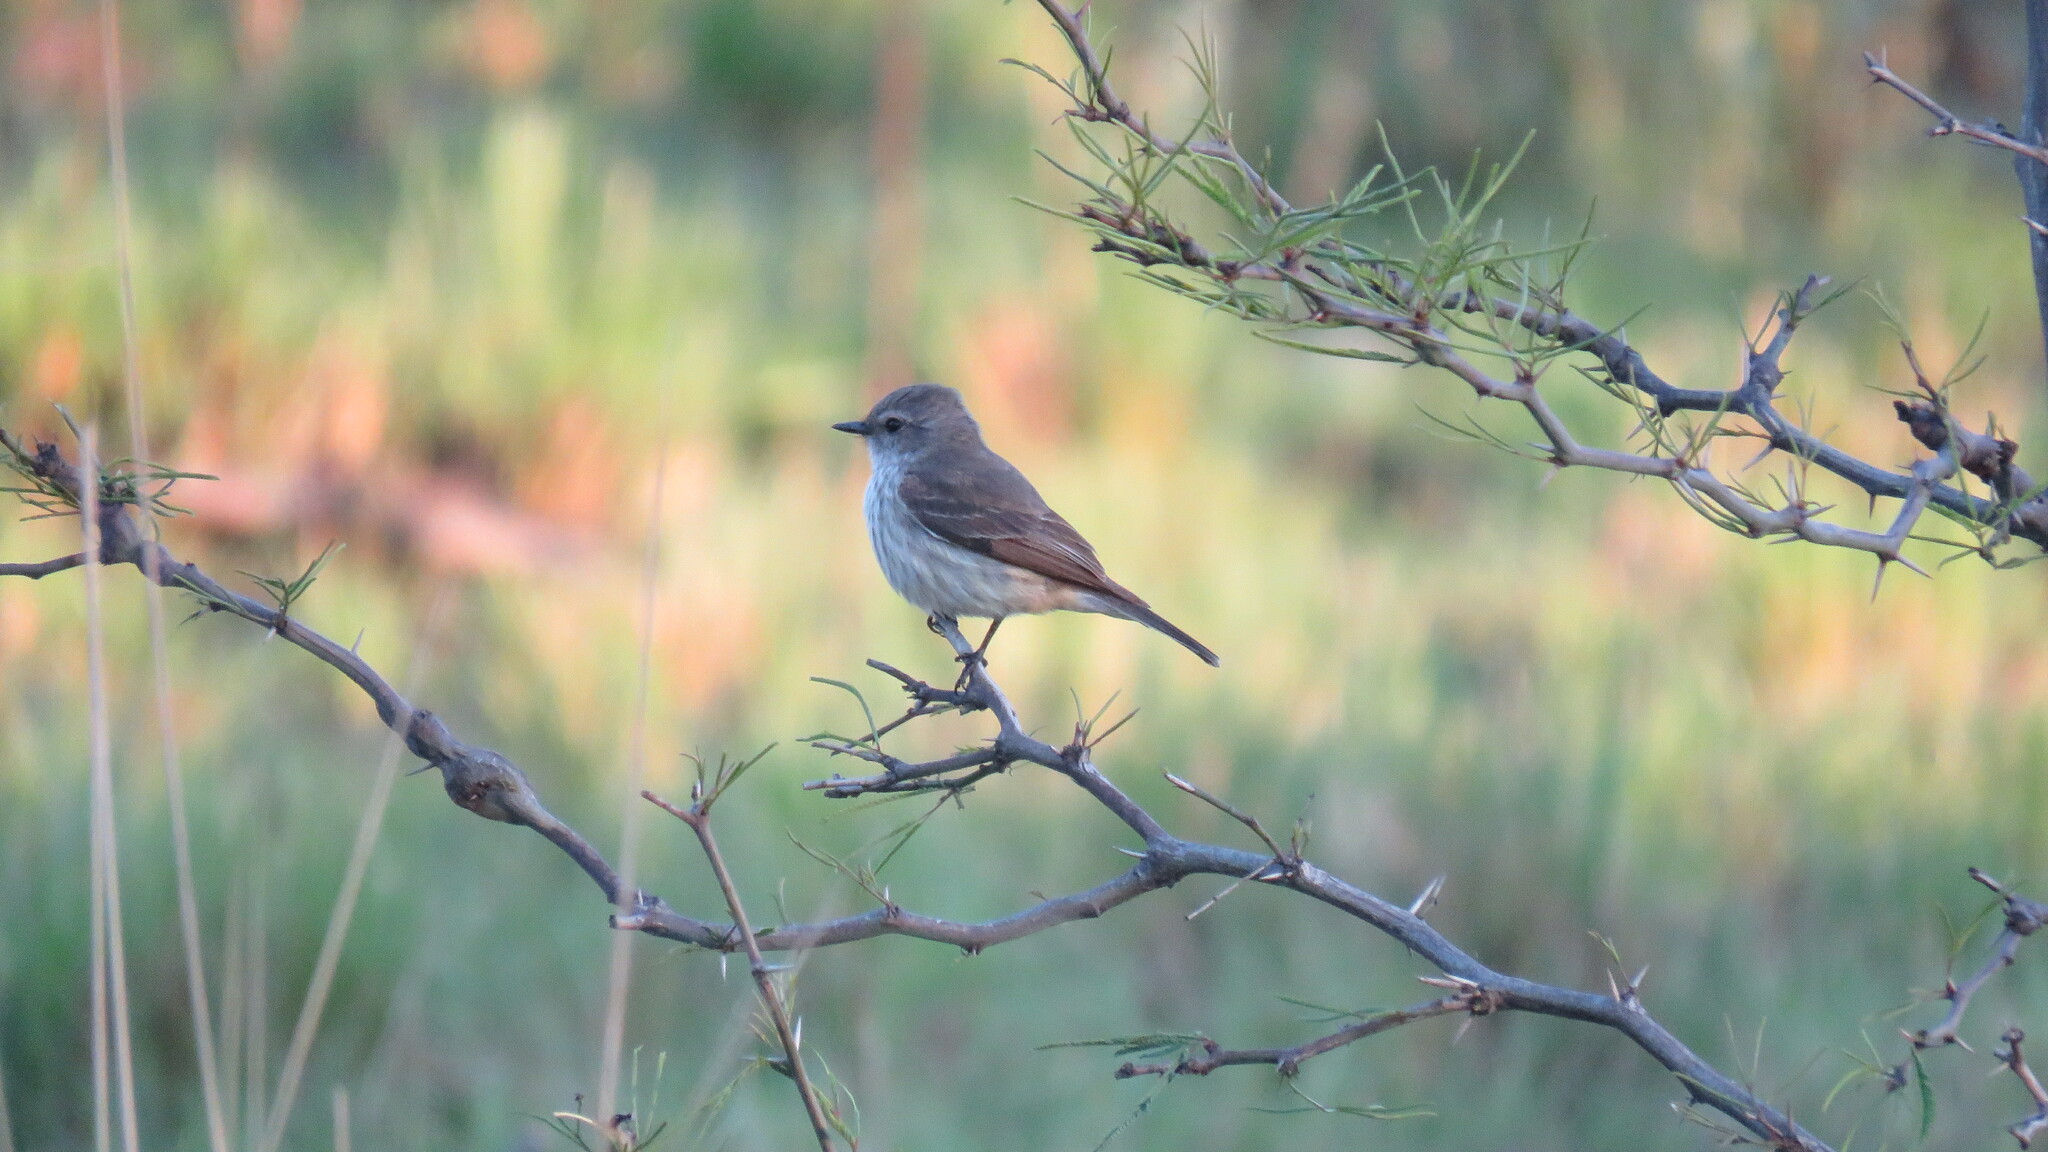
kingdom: Animalia
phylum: Chordata
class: Aves
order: Passeriformes
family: Tyrannidae
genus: Pyrocephalus
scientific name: Pyrocephalus rubinus
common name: Vermilion flycatcher
